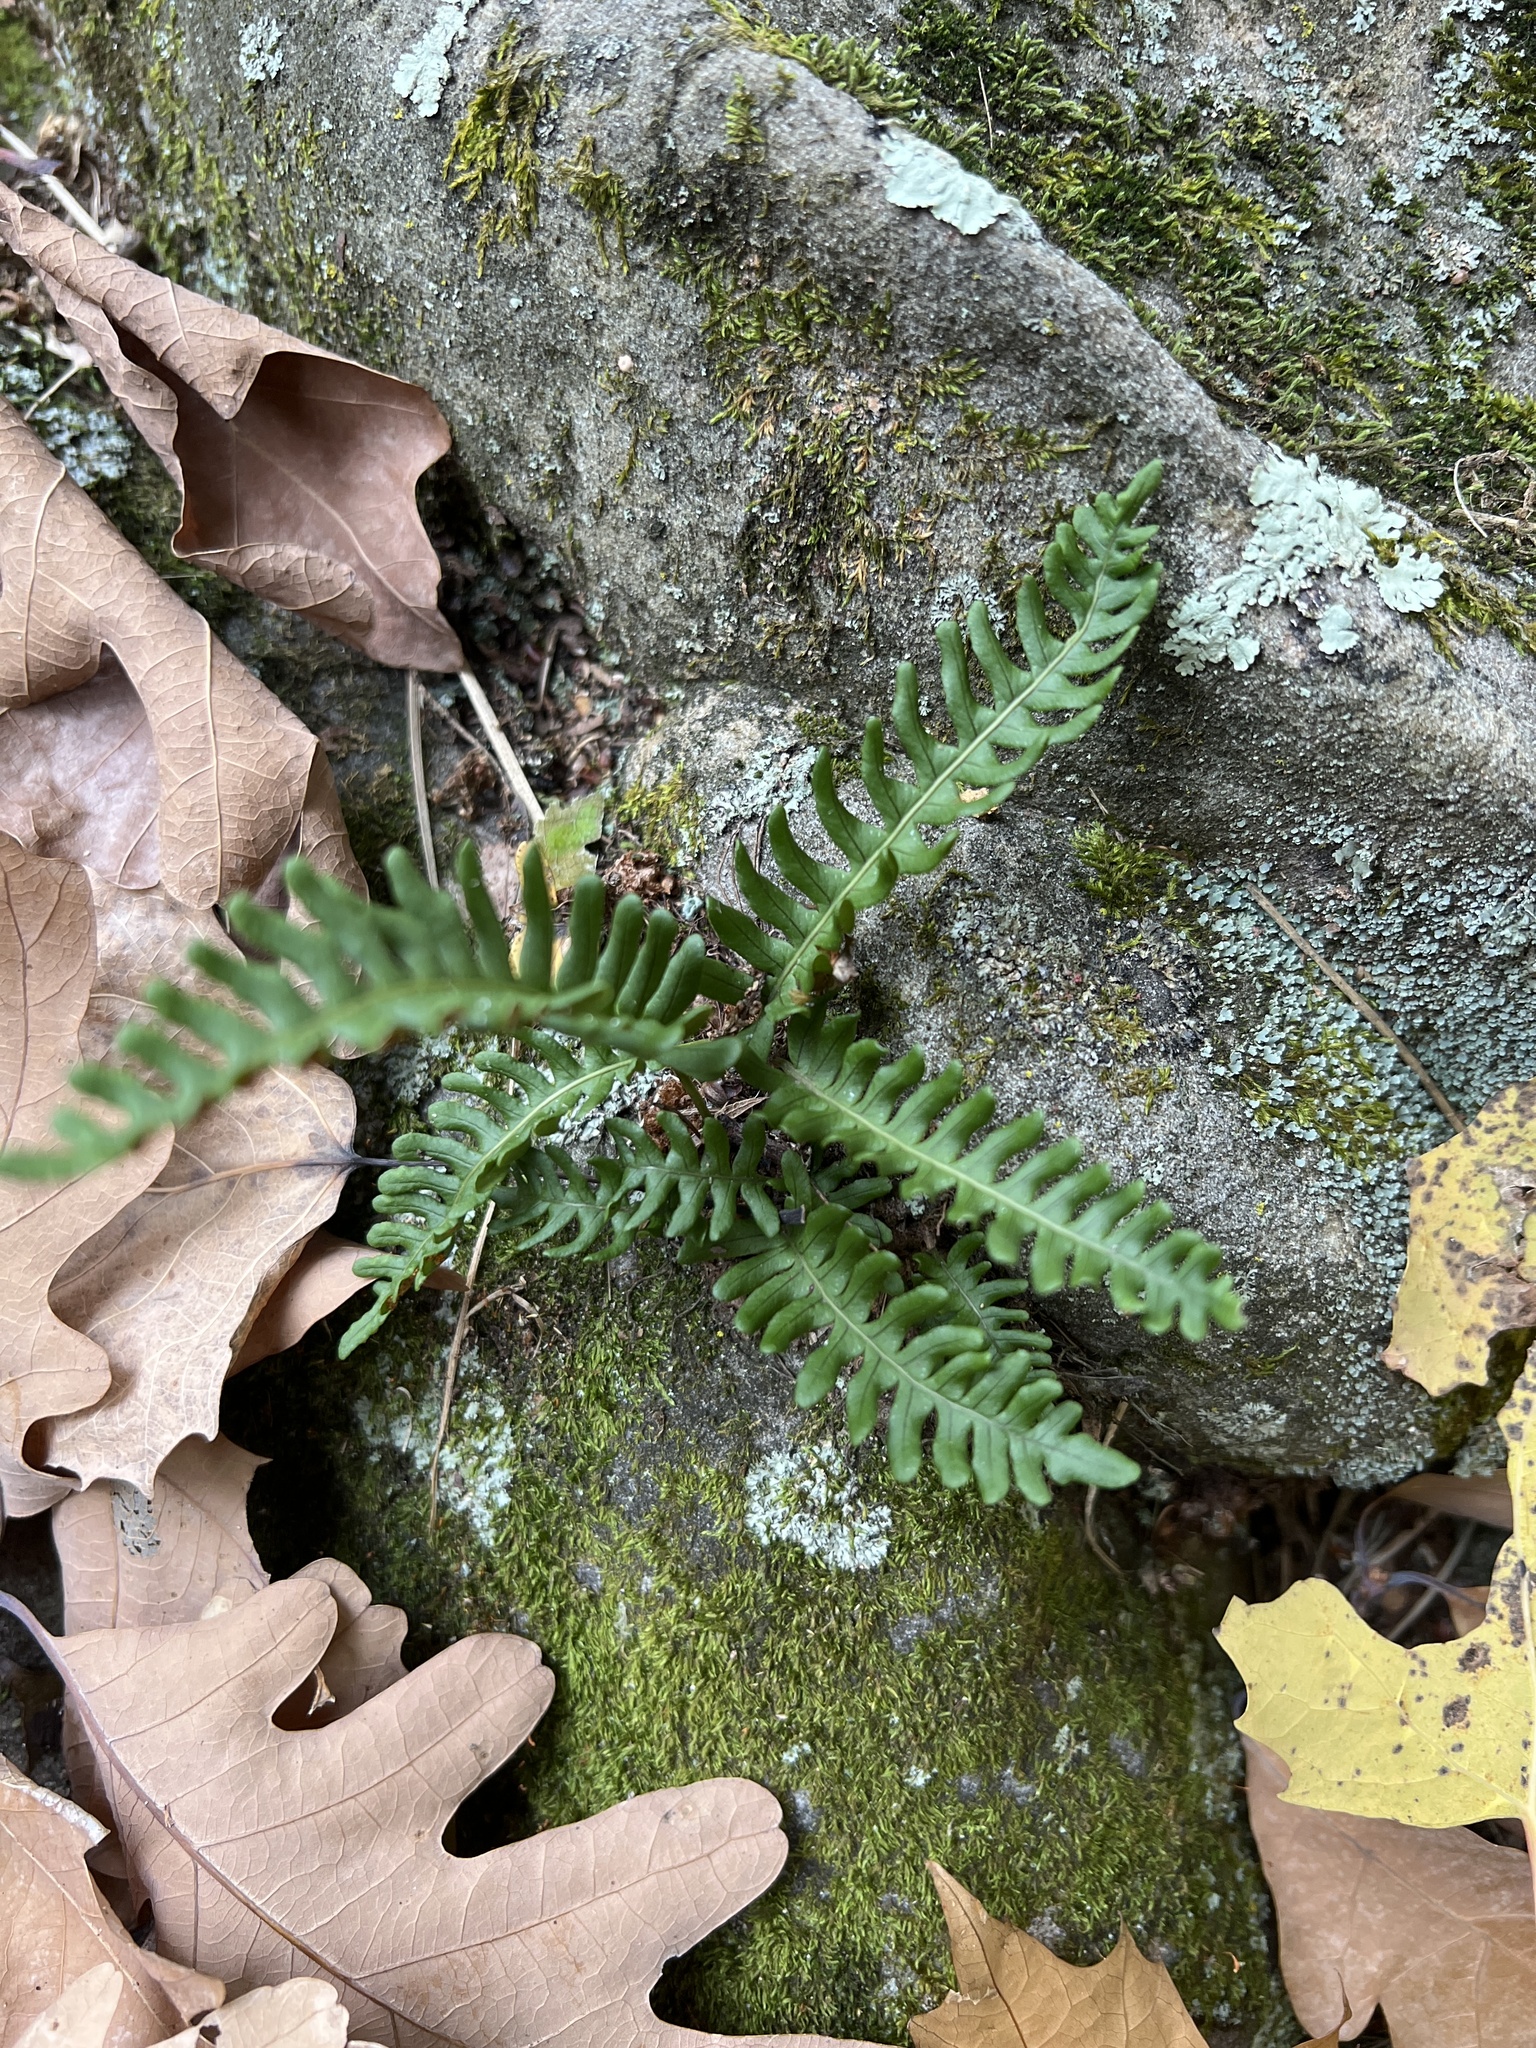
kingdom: Plantae
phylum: Tracheophyta
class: Polypodiopsida
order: Polypodiales
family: Polypodiaceae
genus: Polypodium
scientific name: Polypodium virginianum
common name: American wall fern
